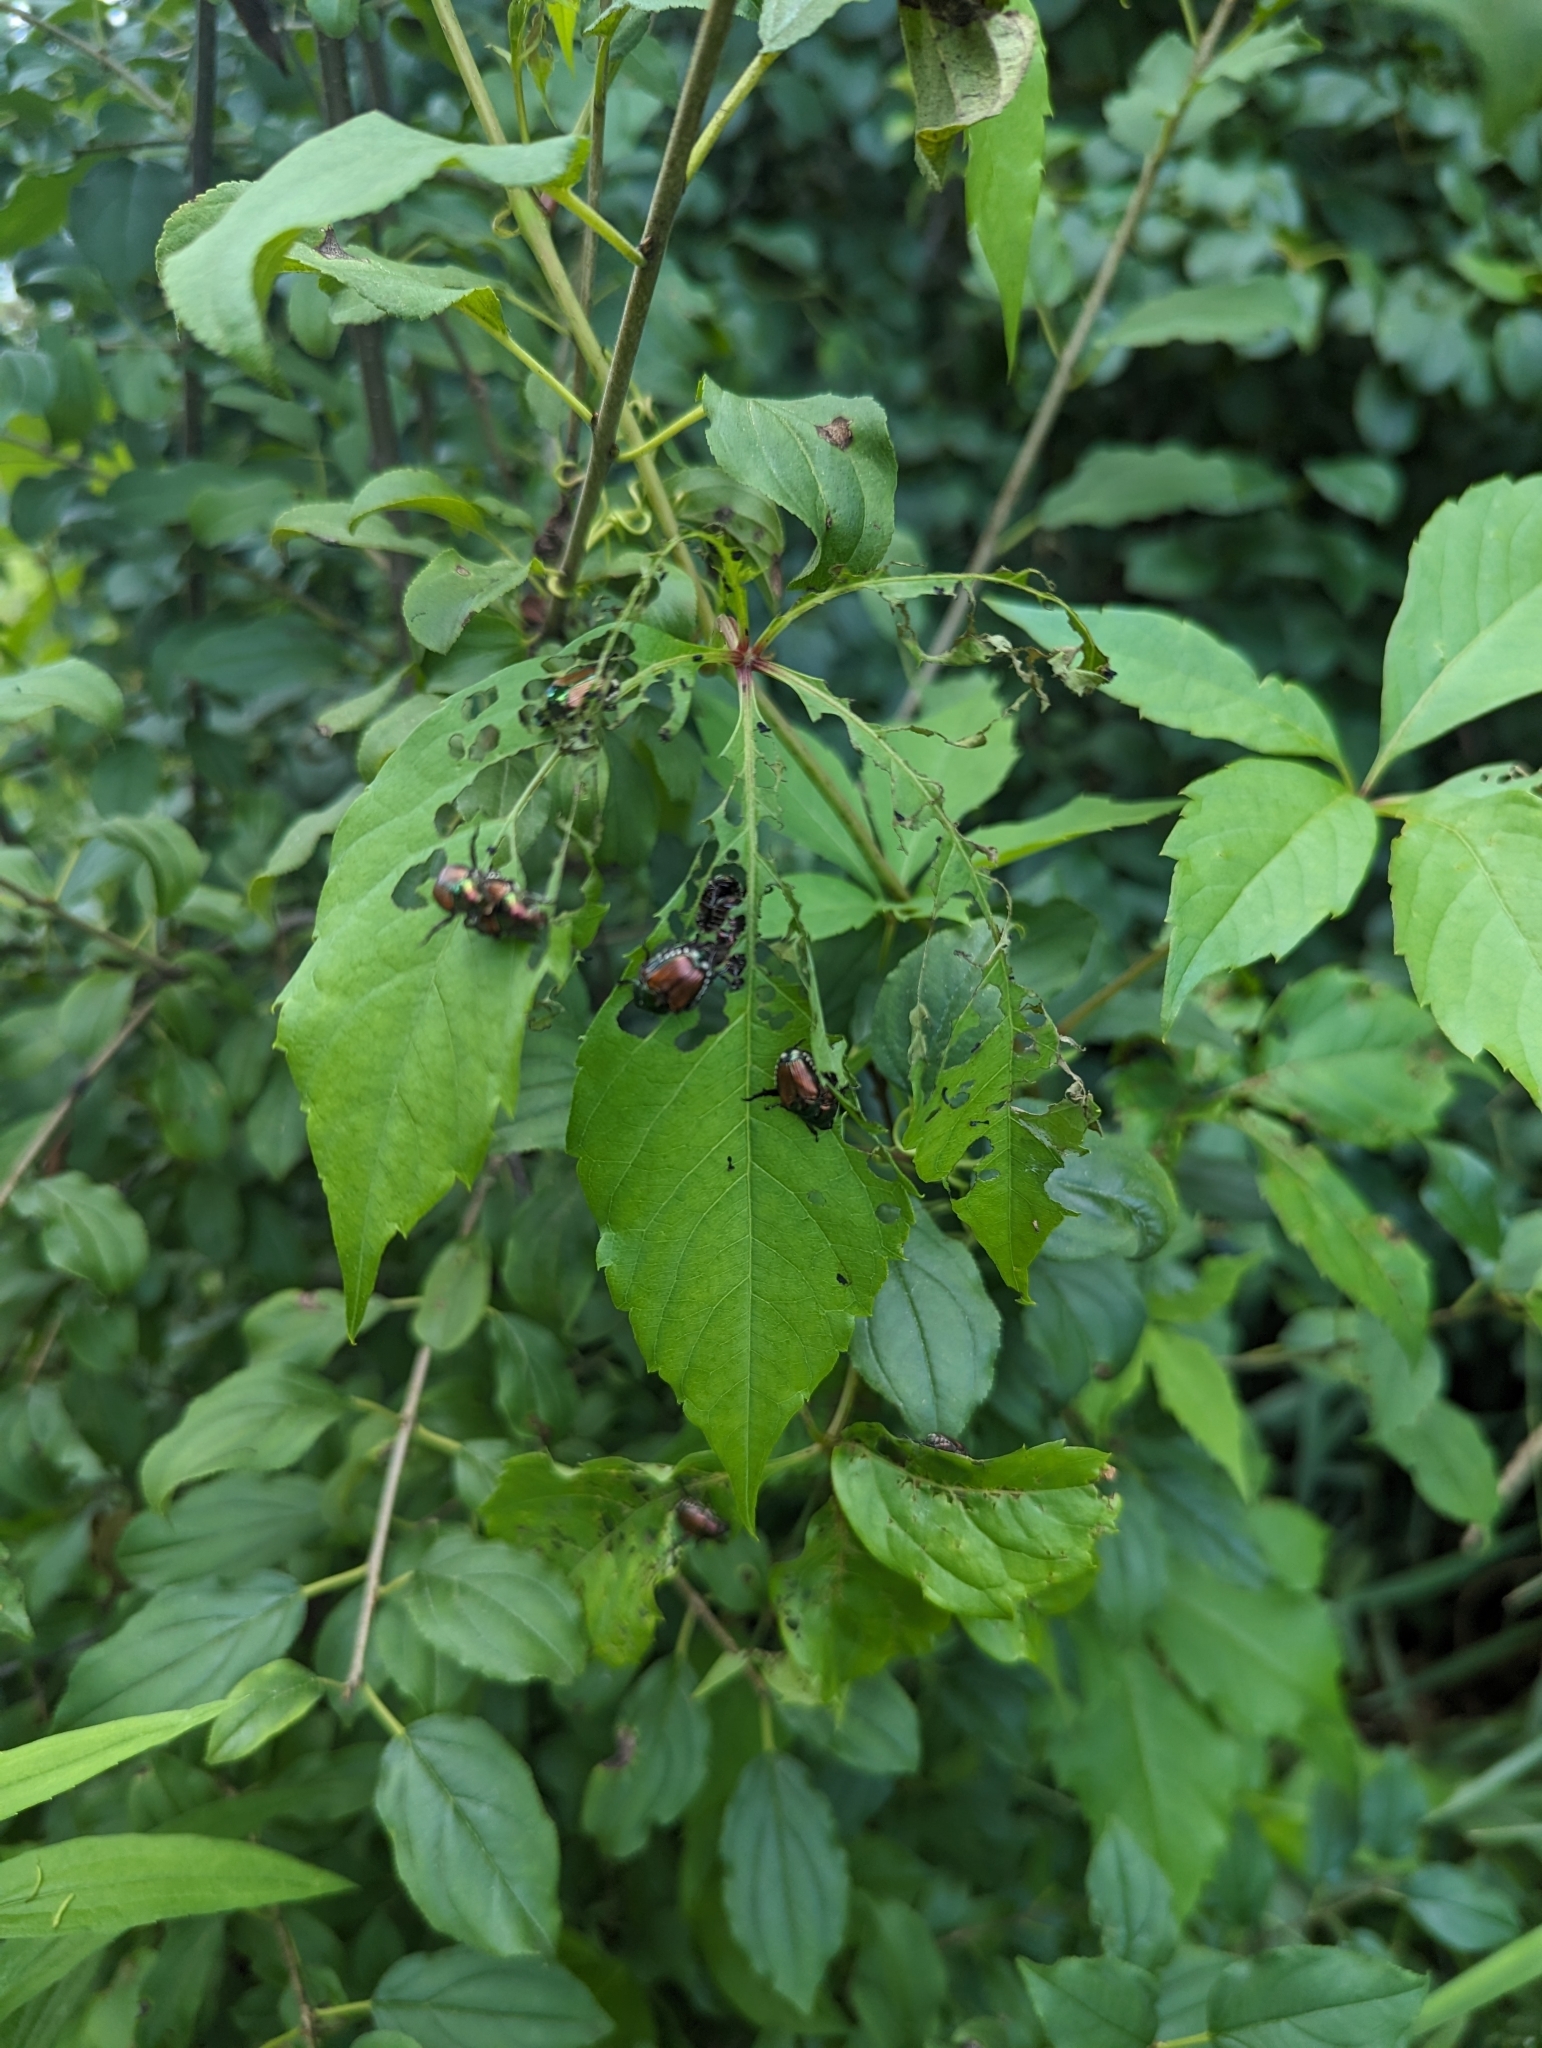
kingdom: Plantae
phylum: Tracheophyta
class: Magnoliopsida
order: Vitales
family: Vitaceae
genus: Parthenocissus
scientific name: Parthenocissus quinquefolia
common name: Virginia-creeper
